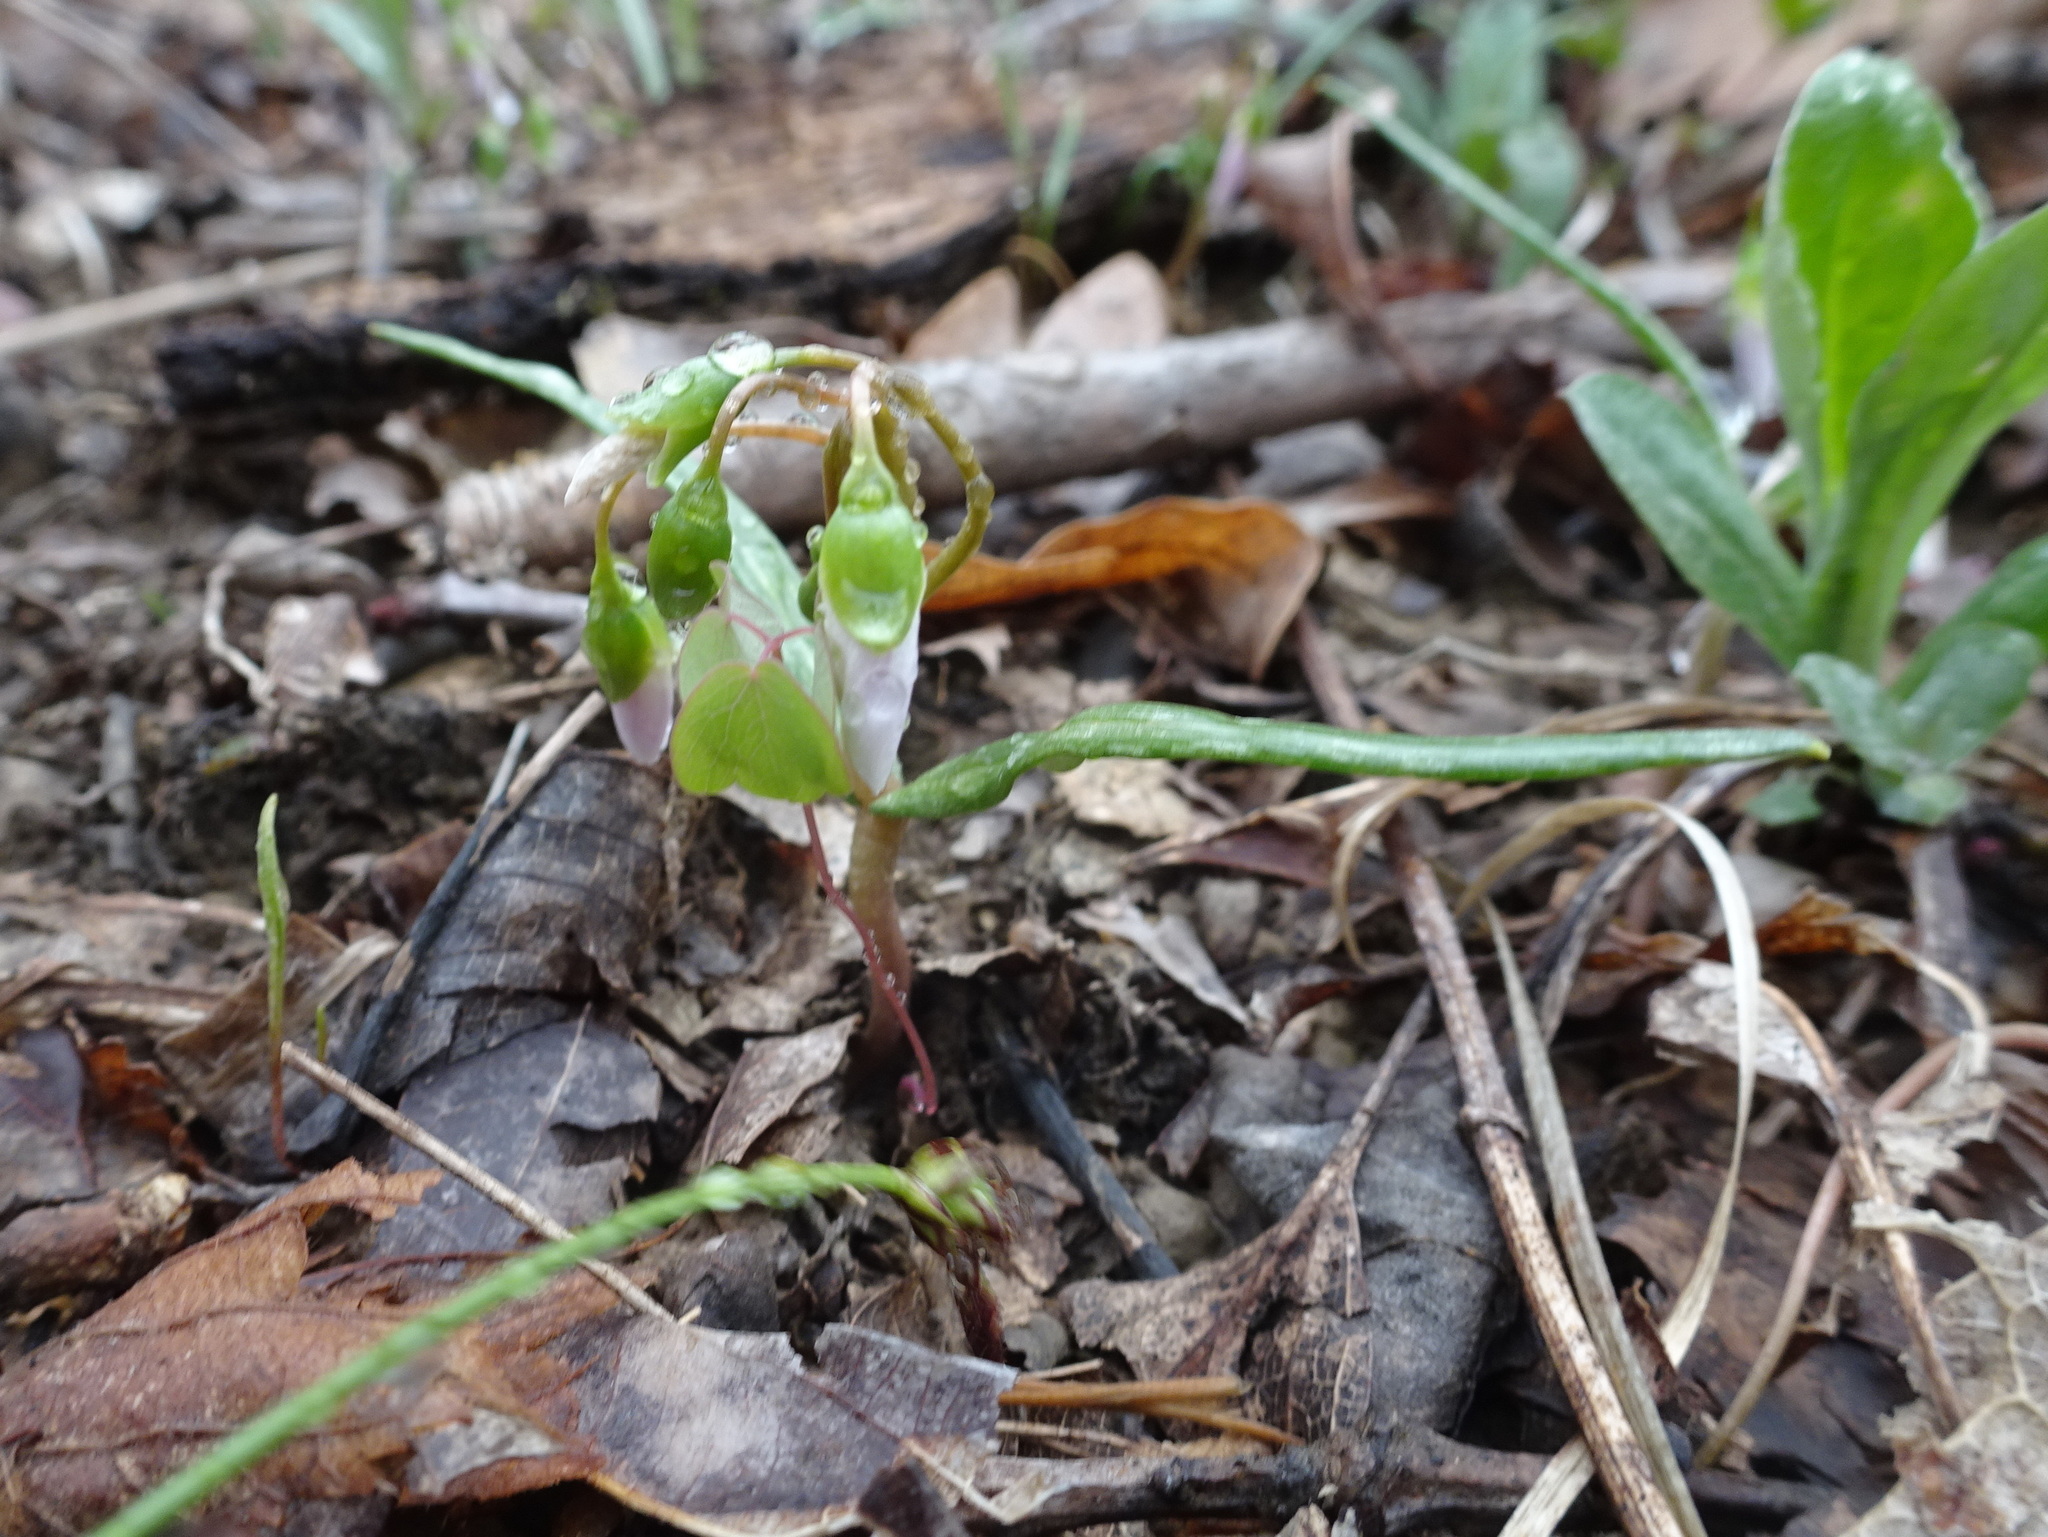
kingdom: Plantae
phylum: Tracheophyta
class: Magnoliopsida
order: Caryophyllales
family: Montiaceae
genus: Claytonia
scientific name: Claytonia virginica
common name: Virginia springbeauty
